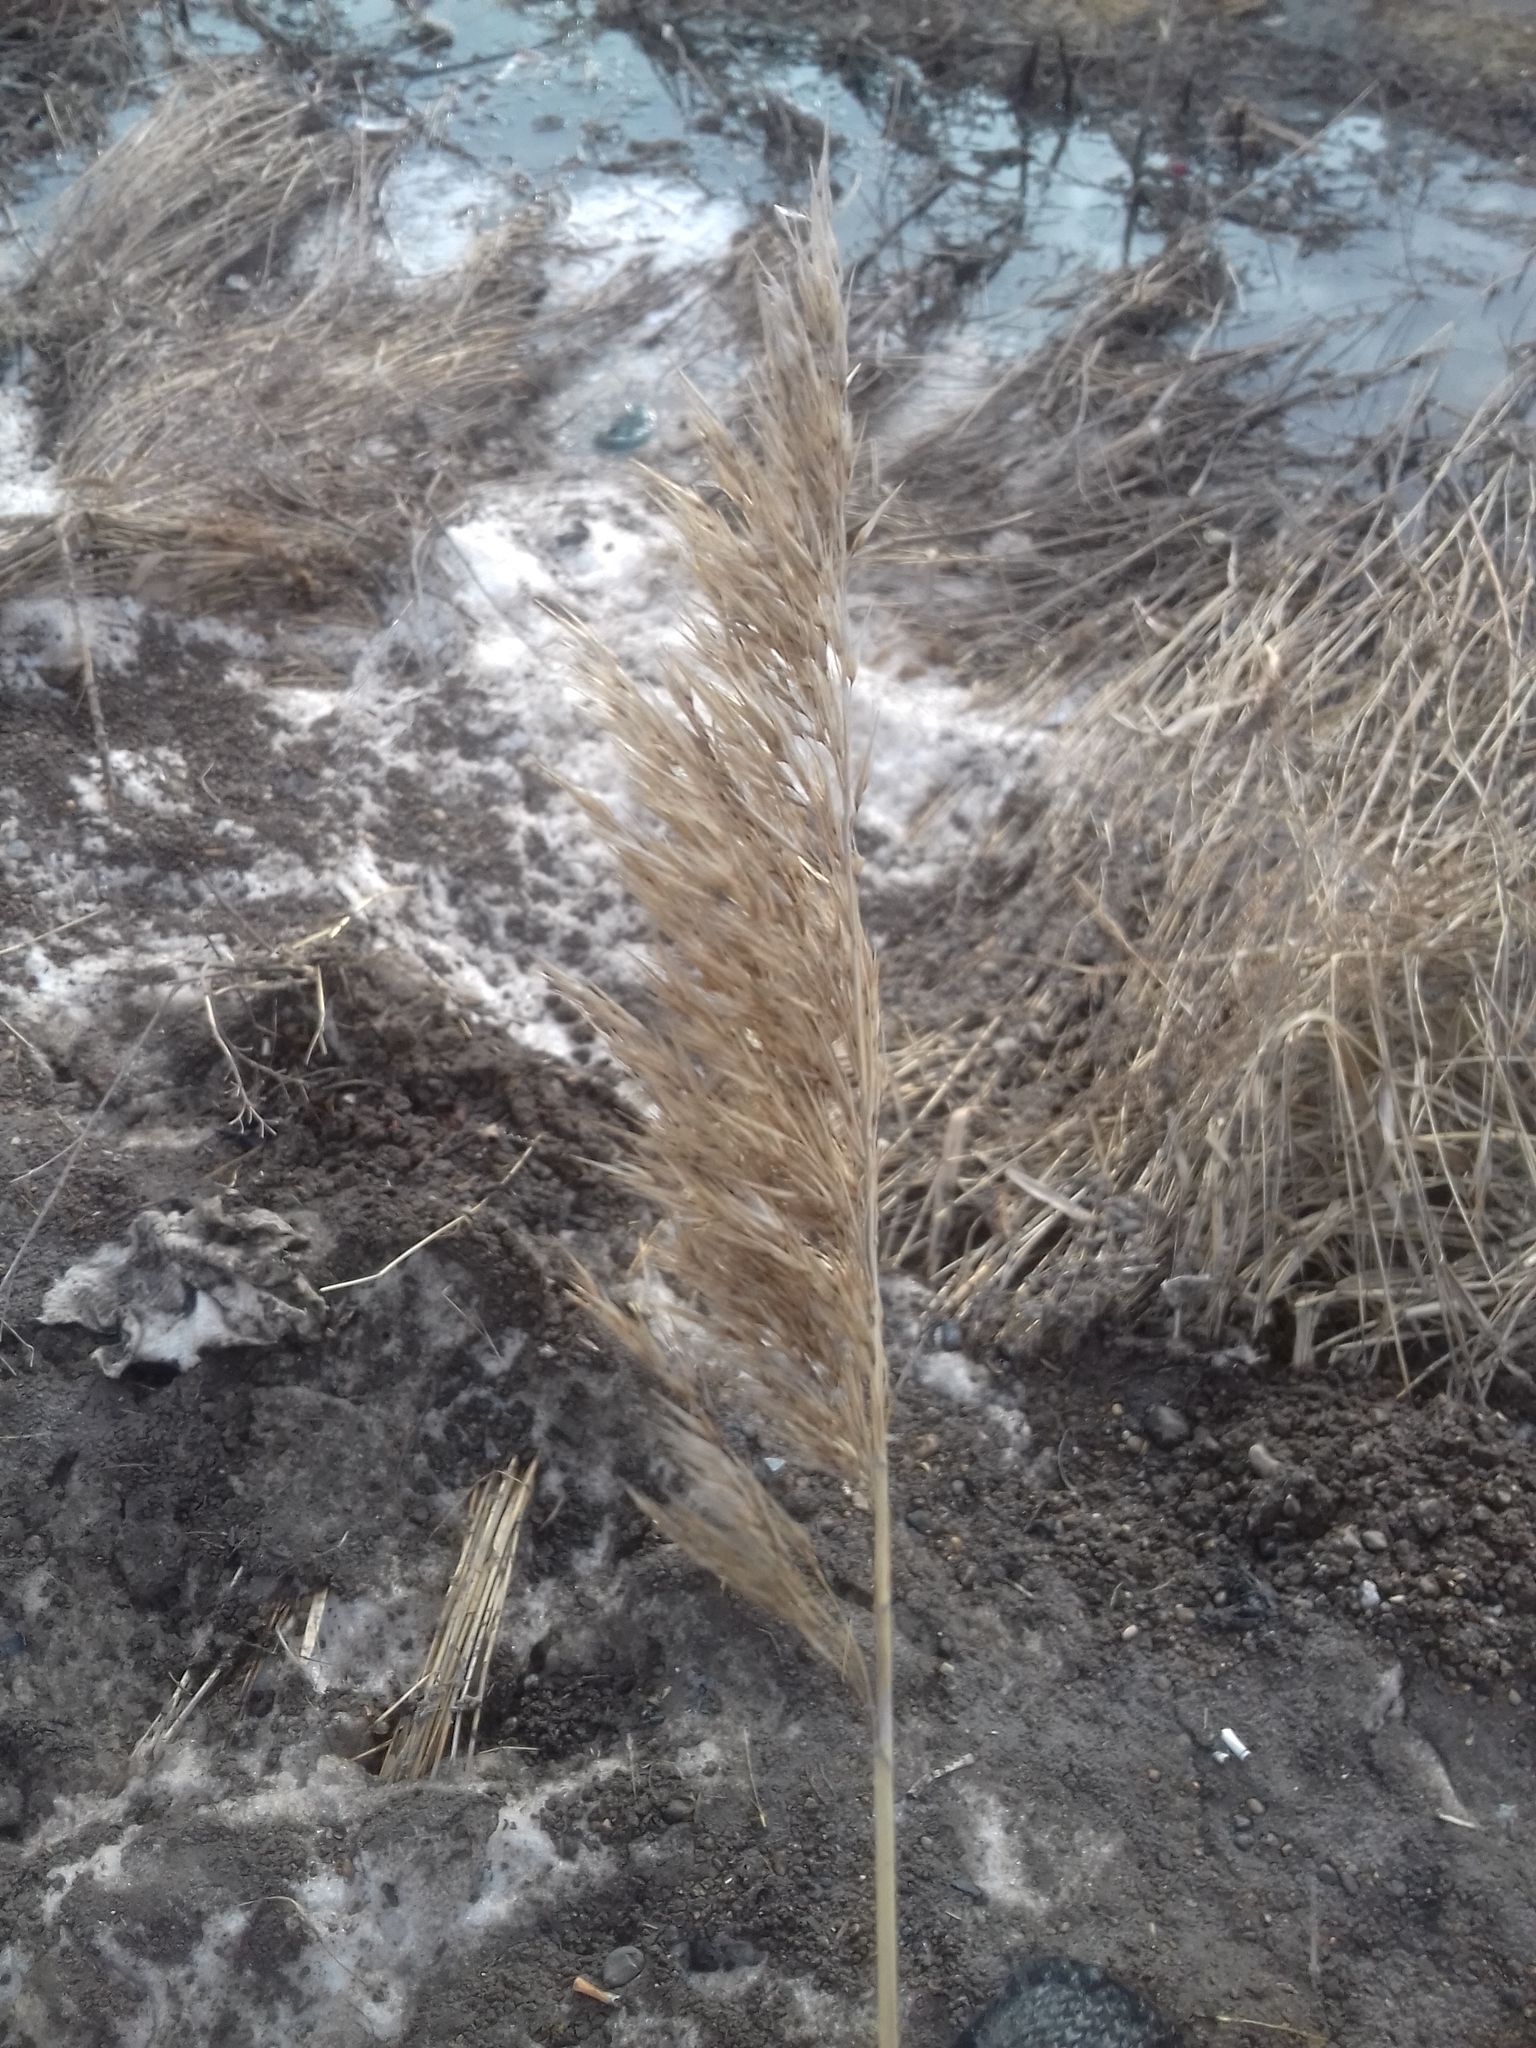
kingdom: Plantae
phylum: Tracheophyta
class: Liliopsida
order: Poales
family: Poaceae
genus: Phragmites
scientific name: Phragmites australis
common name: Common reed
